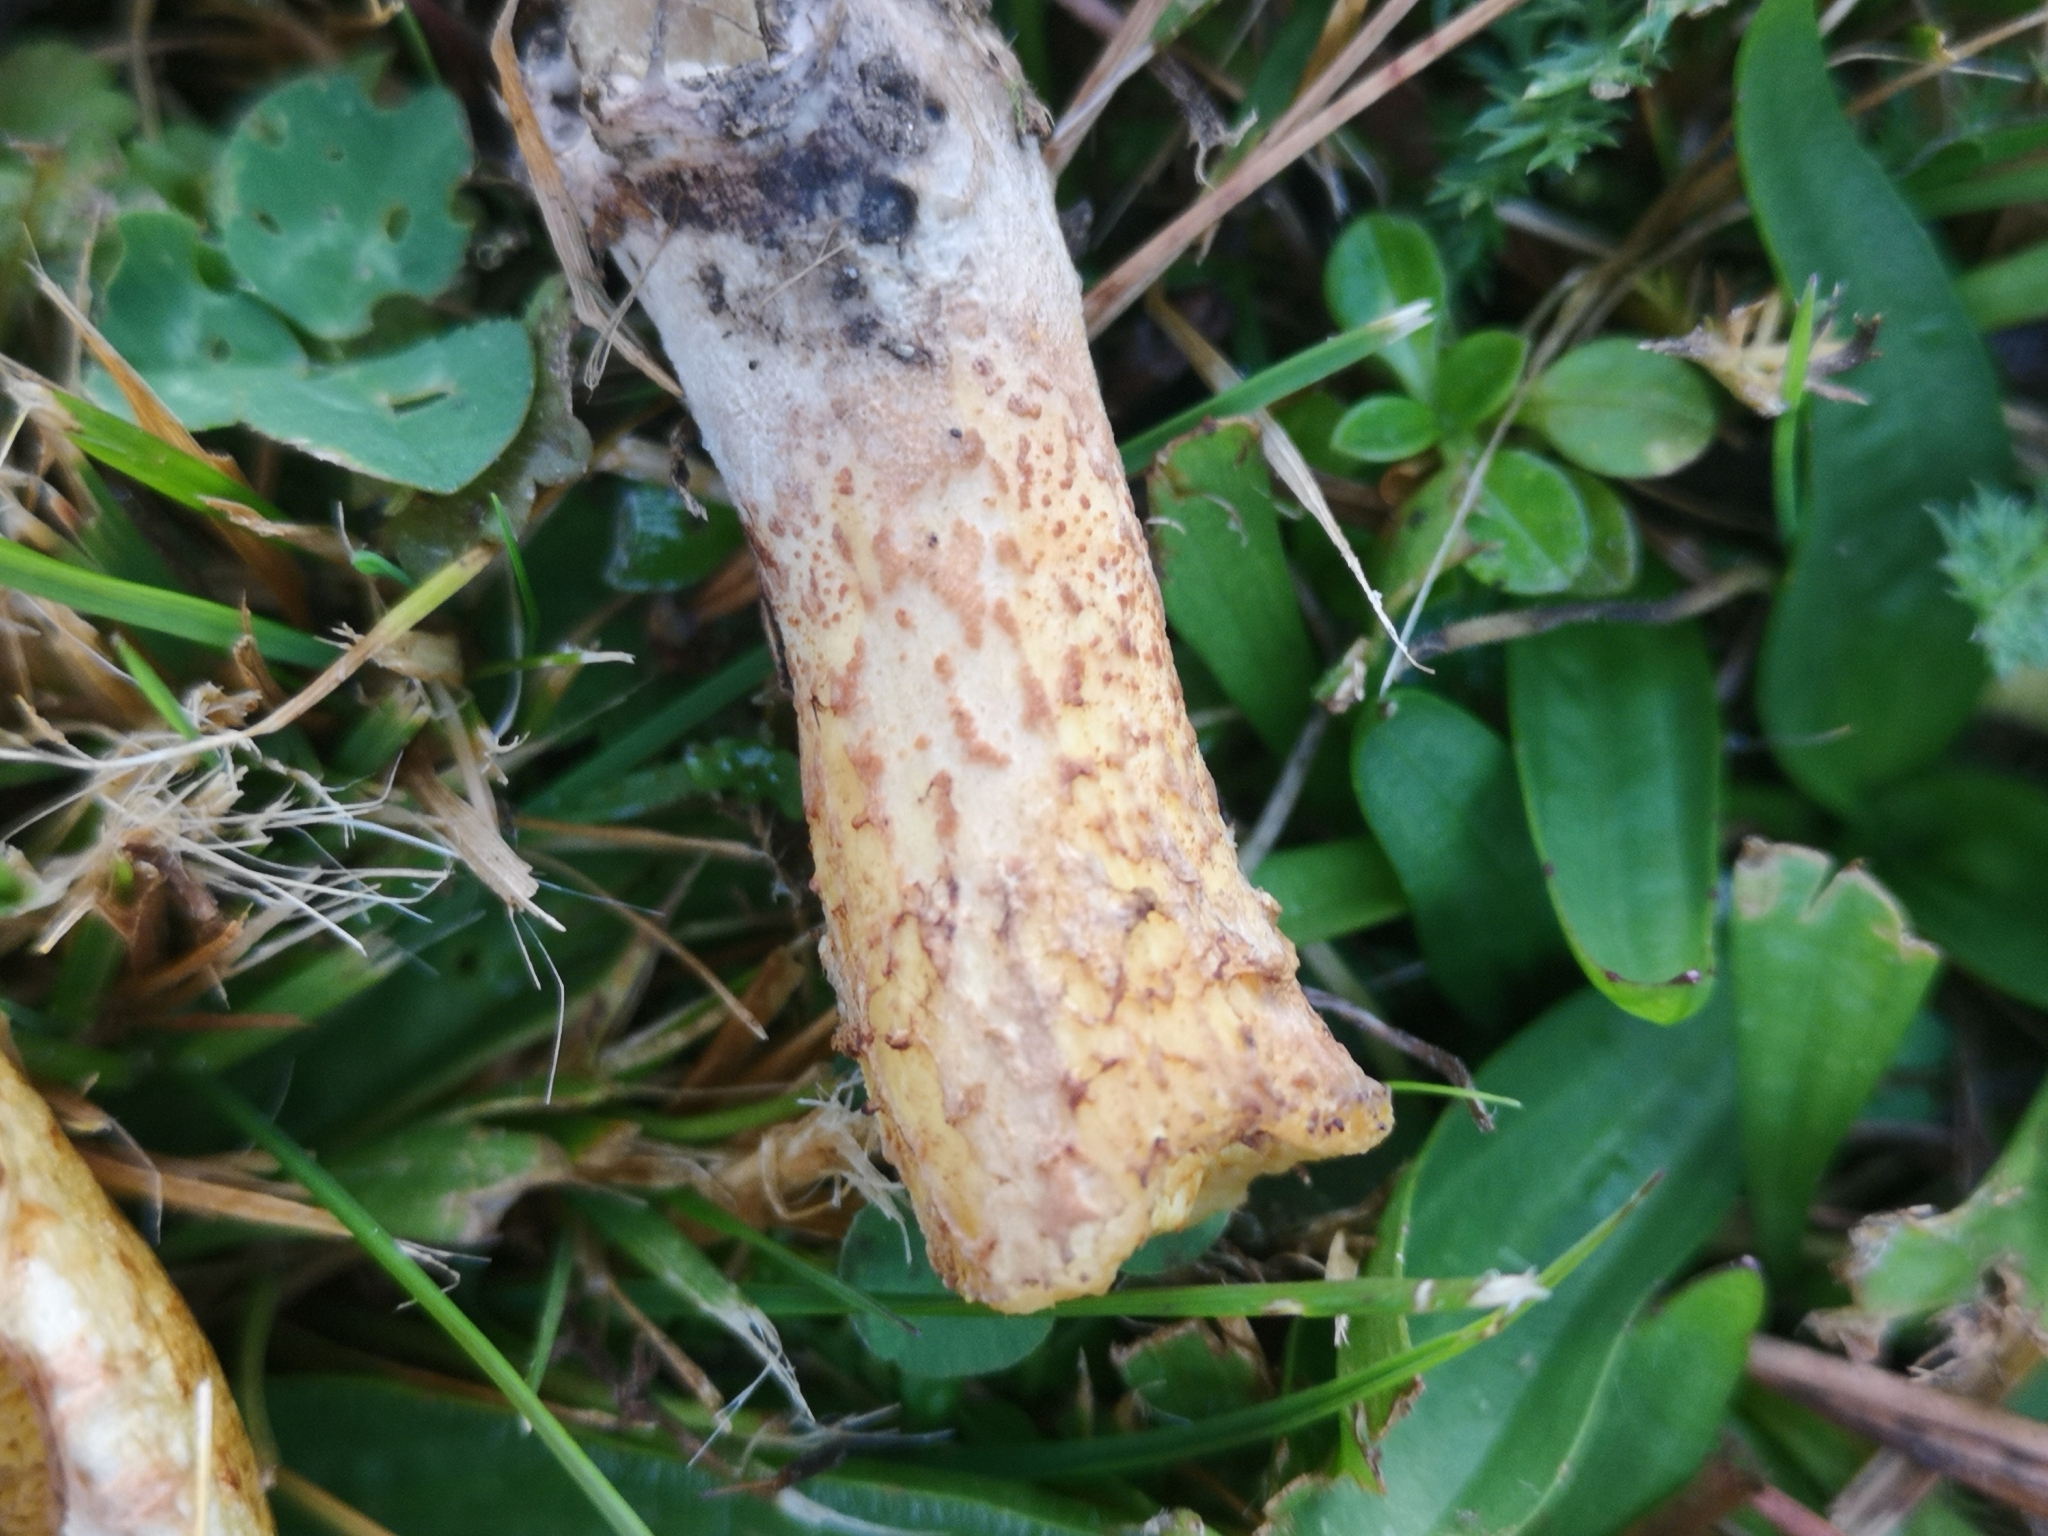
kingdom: Fungi
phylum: Basidiomycota
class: Agaricomycetes
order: Boletales
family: Suillaceae
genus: Suillus
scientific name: Suillus cavipes
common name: Hollow bolete
